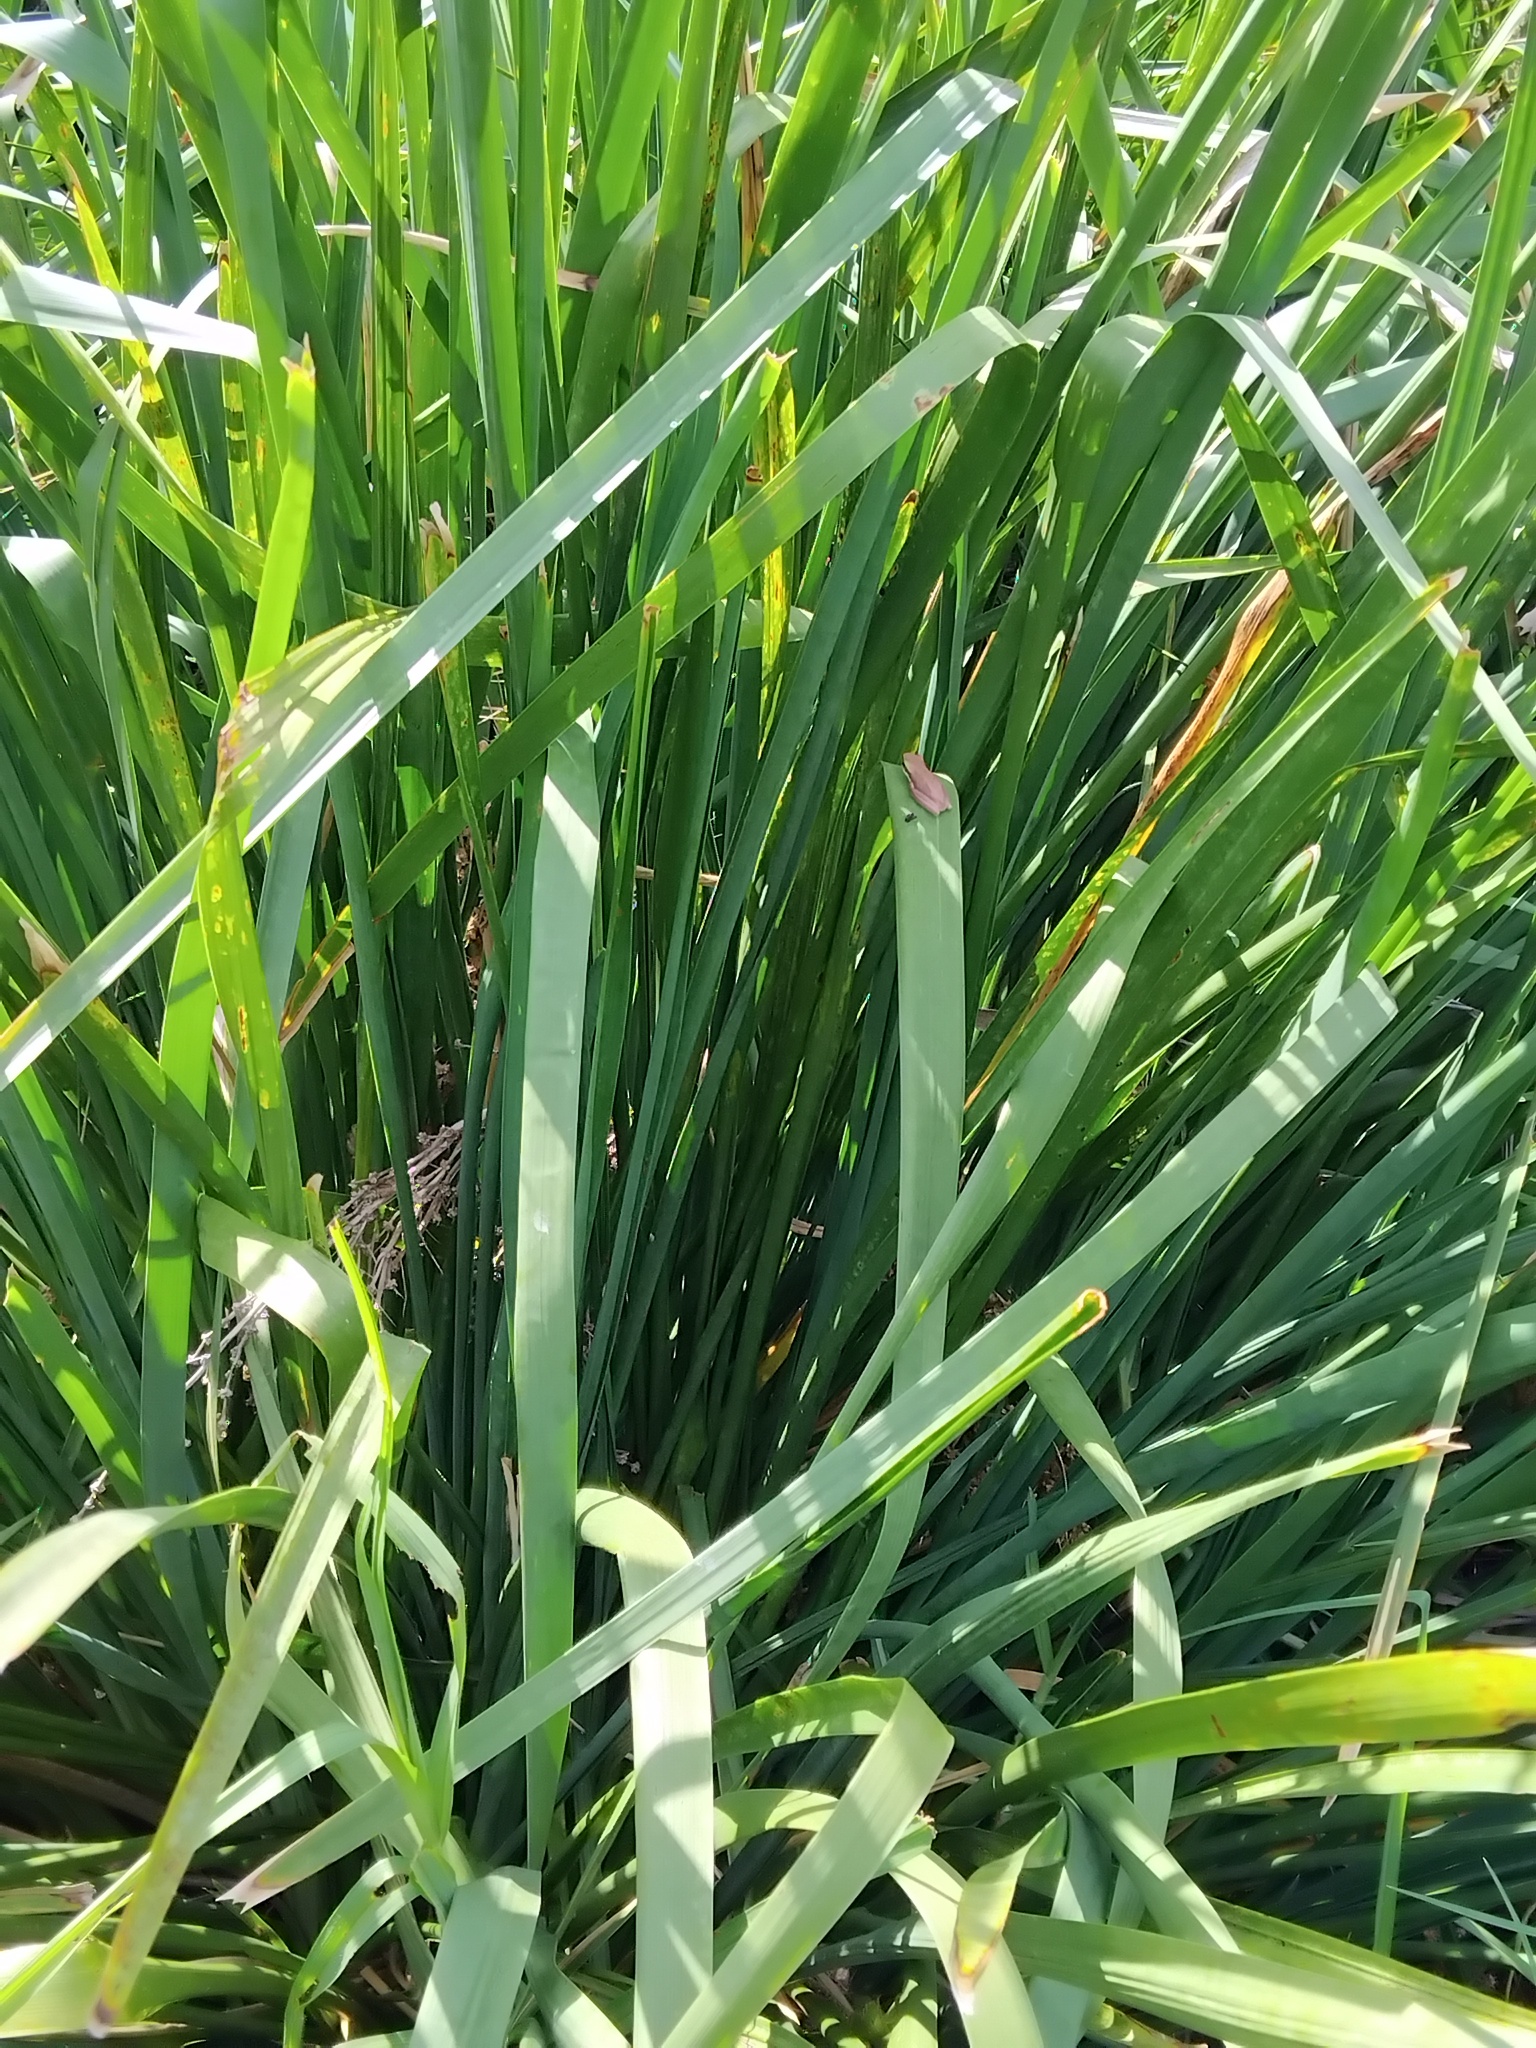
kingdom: Animalia
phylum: Chordata
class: Amphibia
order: Anura
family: Pelodryadidae
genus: Litoria
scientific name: Litoria fallax
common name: Eastern dwarf treefrog
